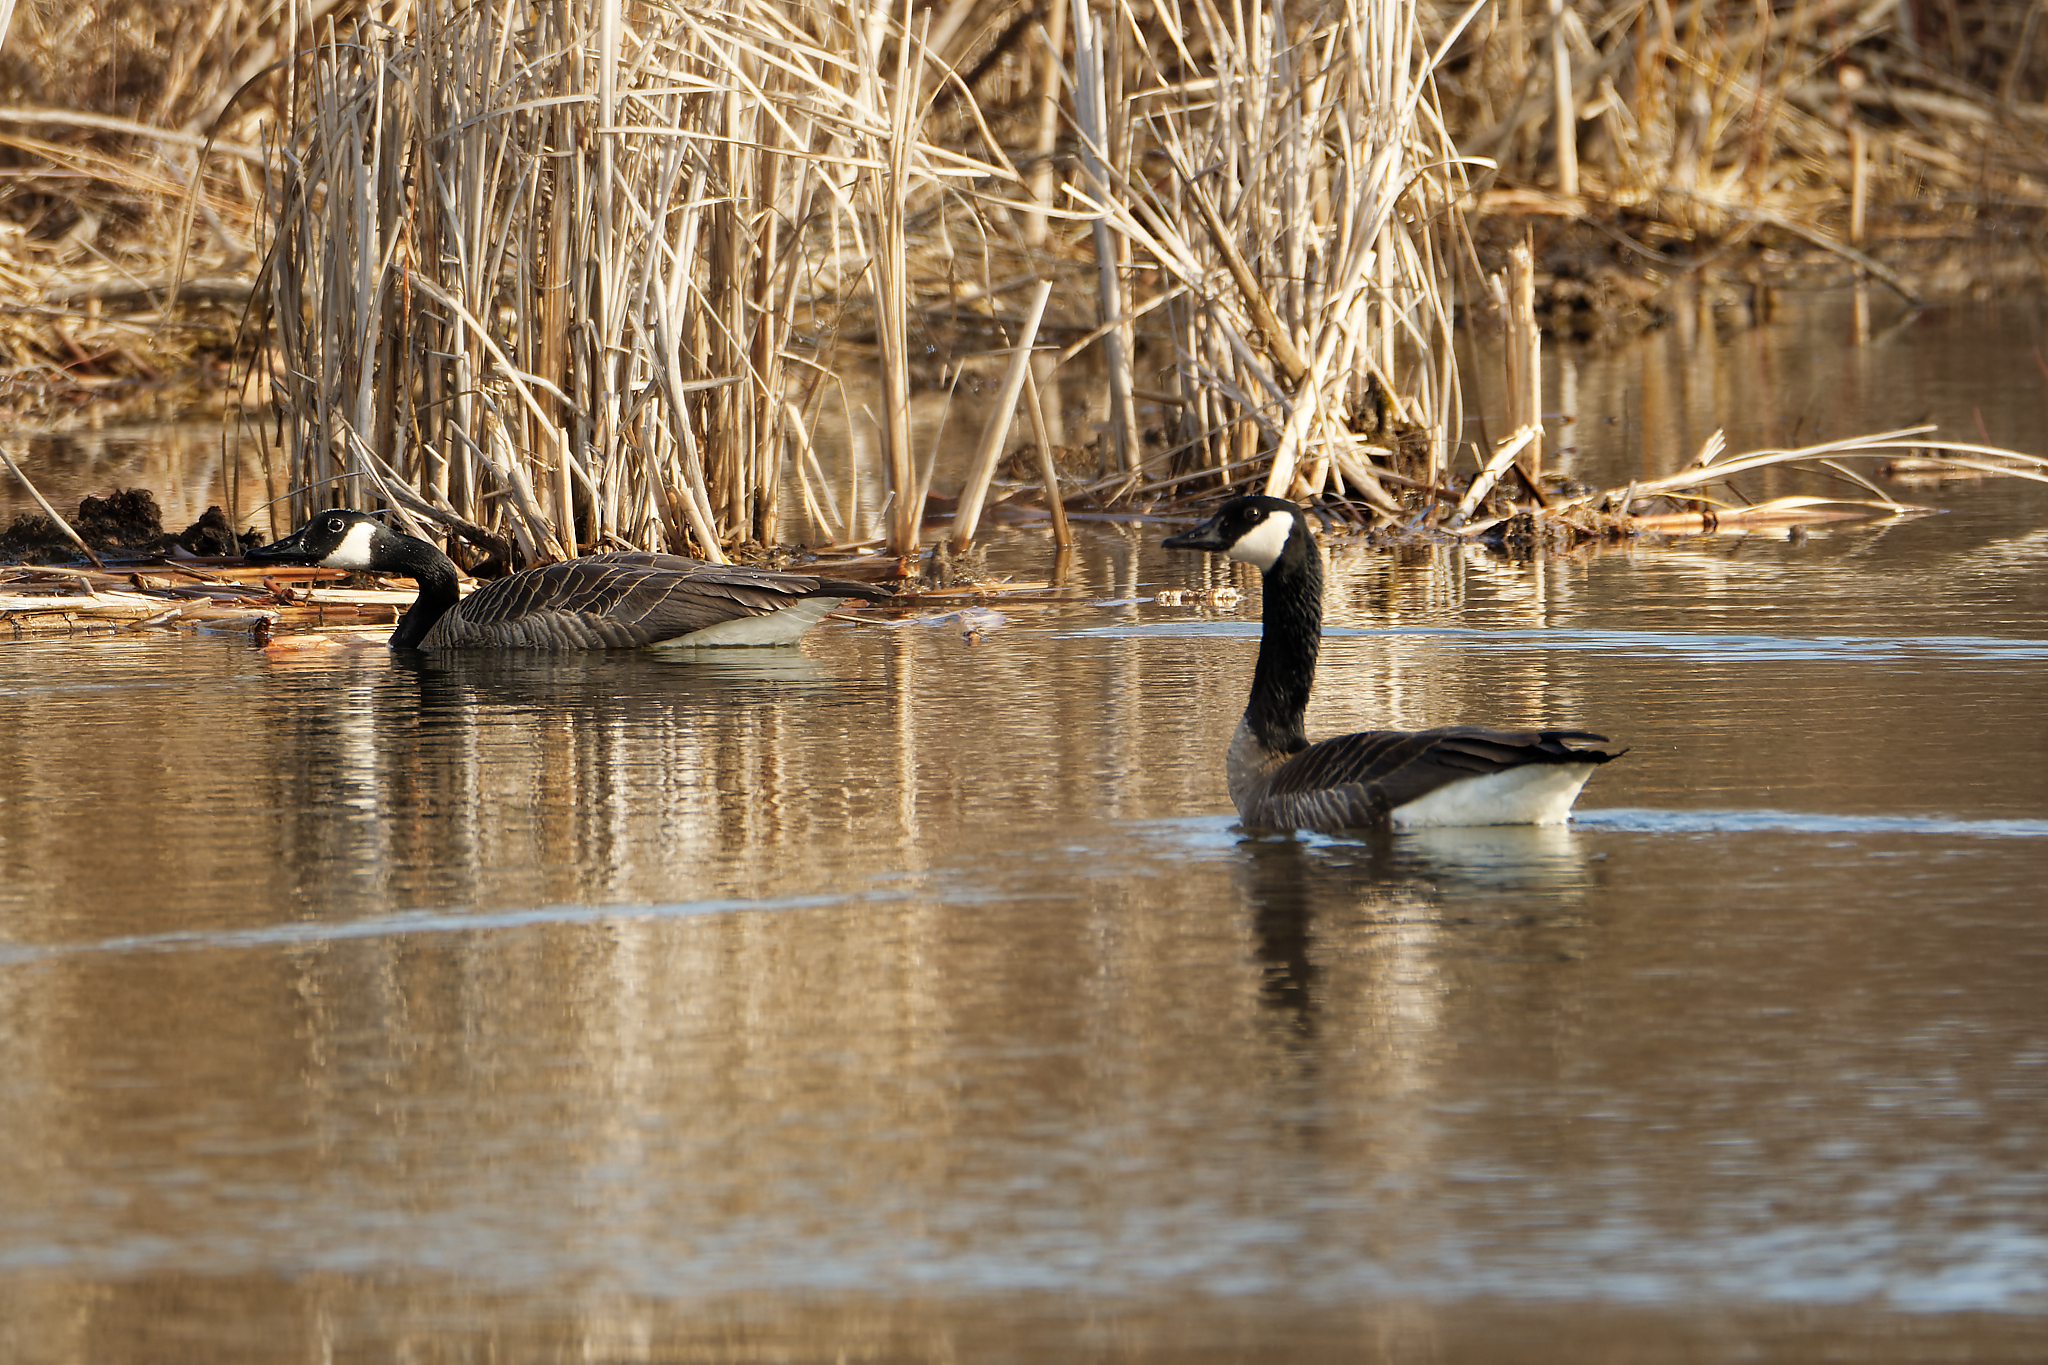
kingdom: Animalia
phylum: Chordata
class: Aves
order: Anseriformes
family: Anatidae
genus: Branta
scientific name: Branta canadensis
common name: Canada goose
